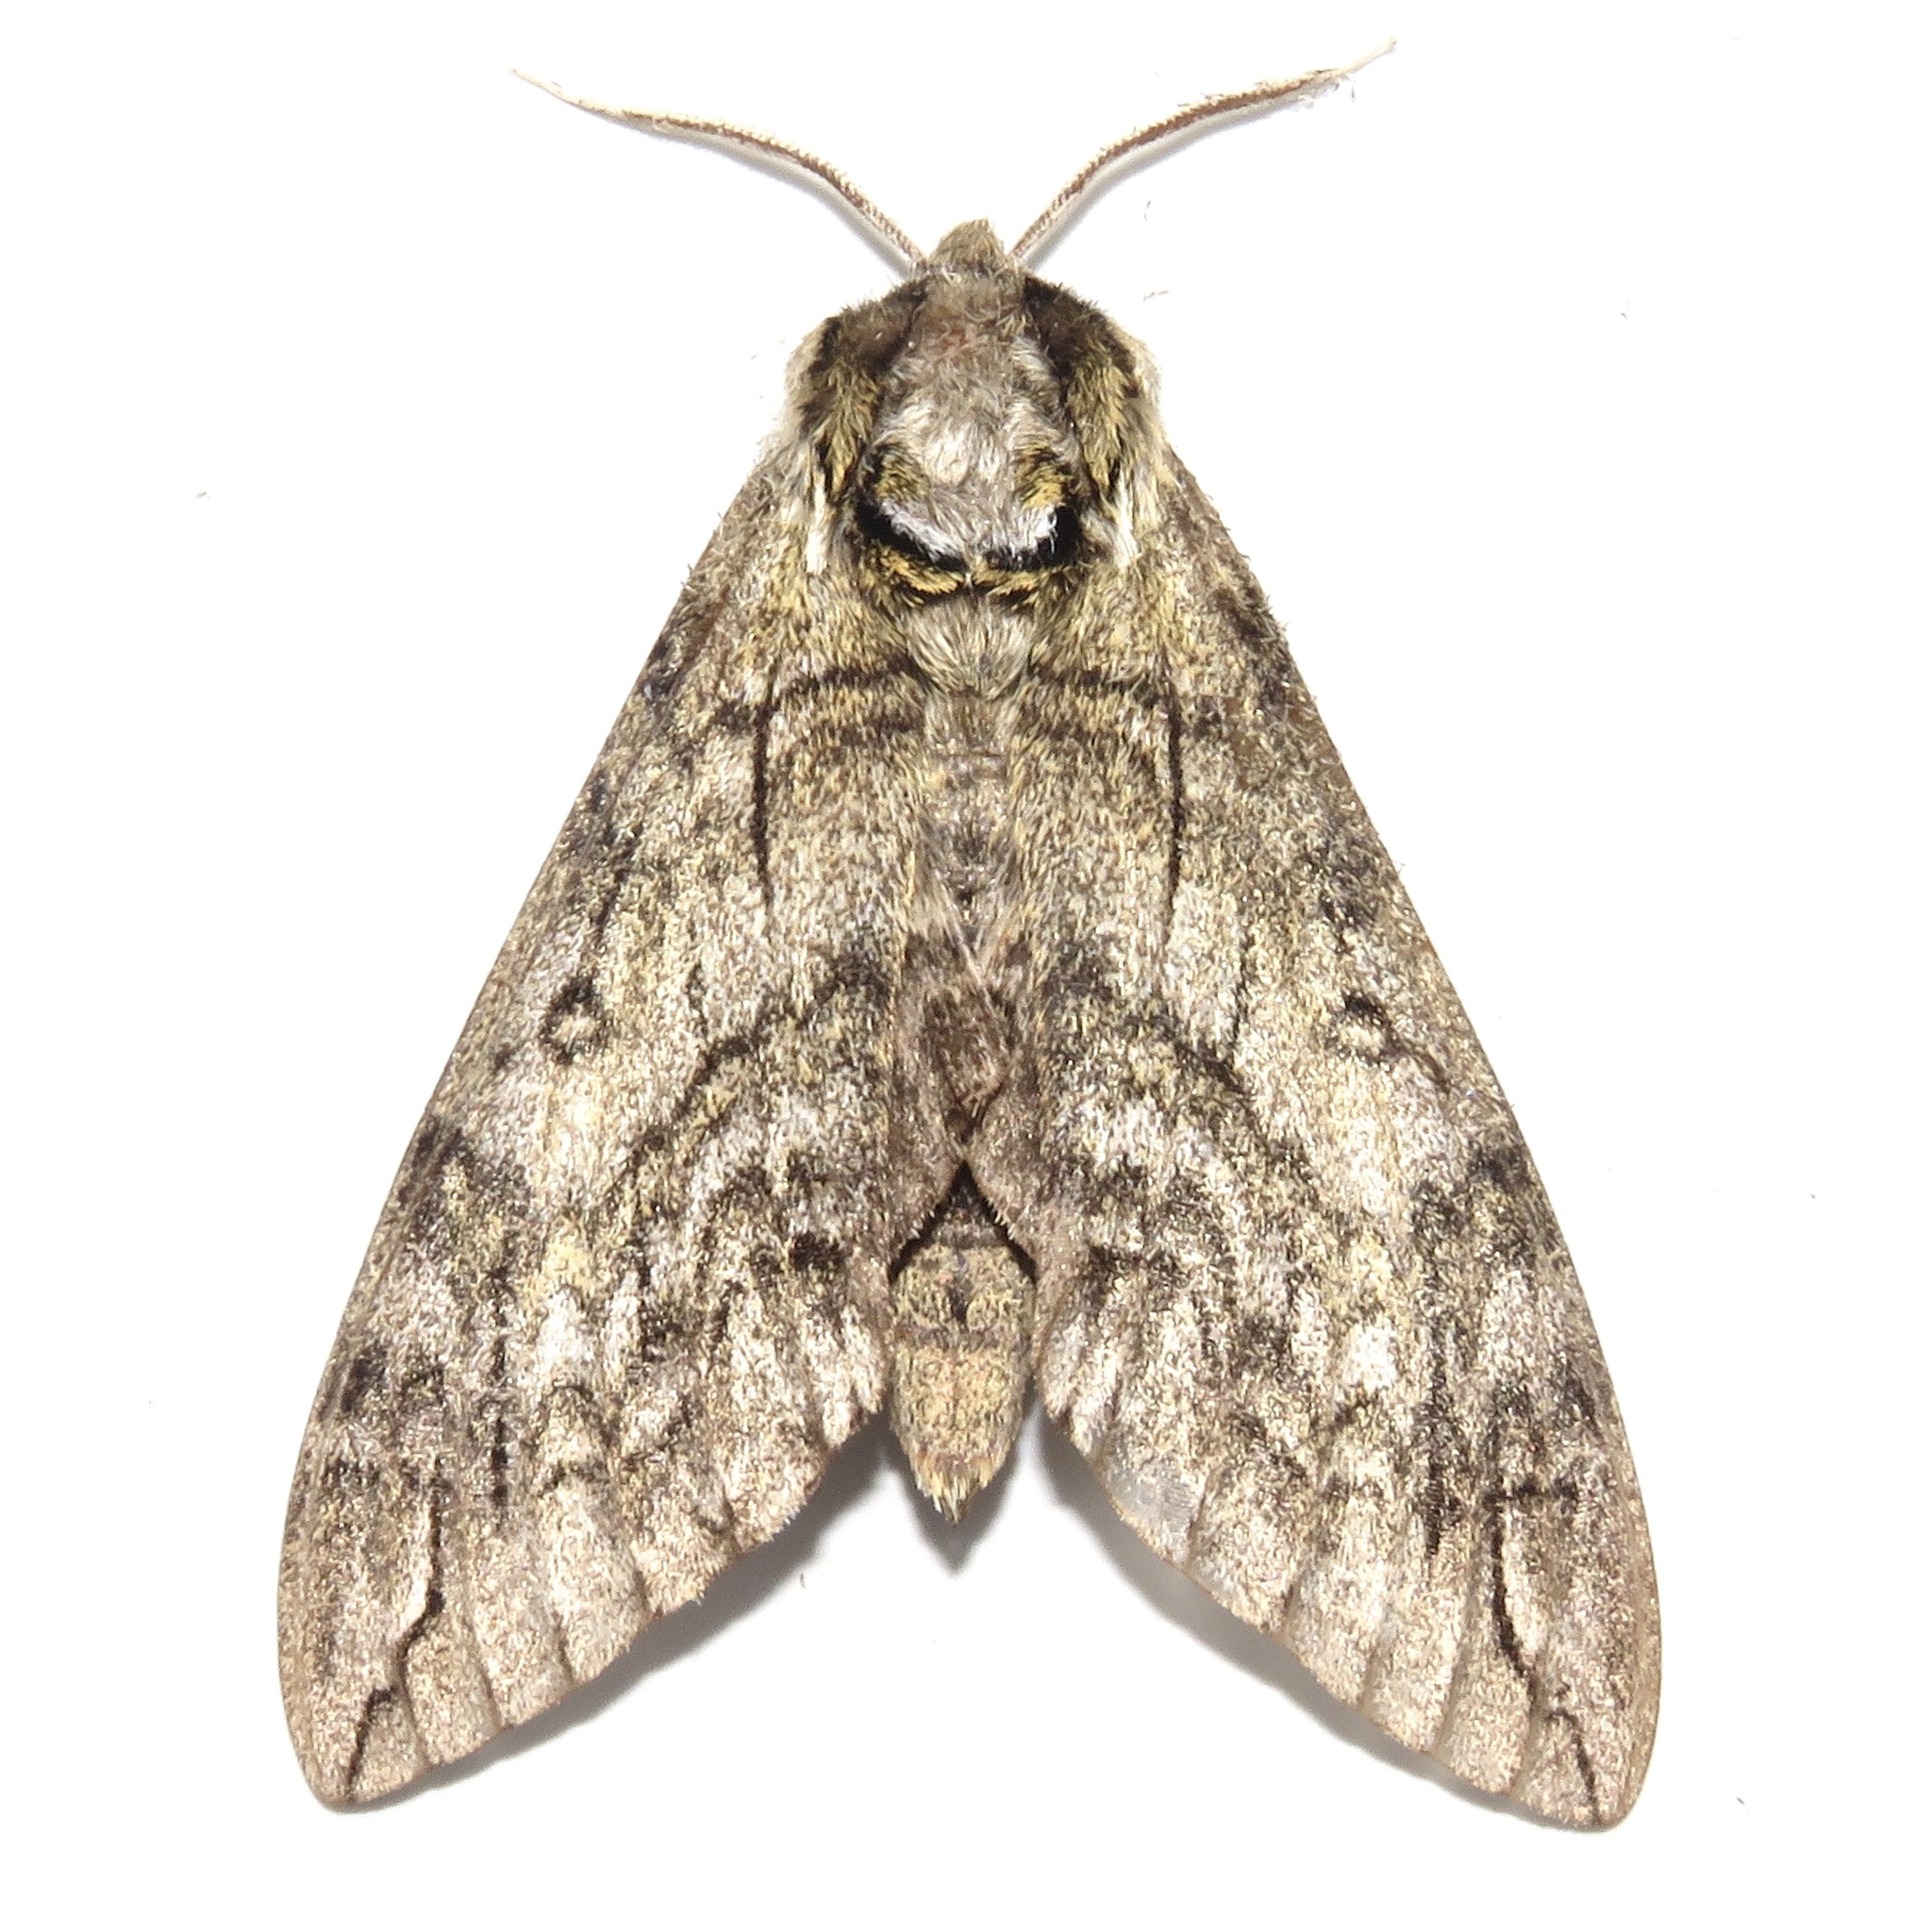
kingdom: Animalia
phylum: Arthropoda
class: Insecta
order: Lepidoptera
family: Sphingidae
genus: Ceratomia
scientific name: Ceratomia undulosa
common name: Waved sphinx
